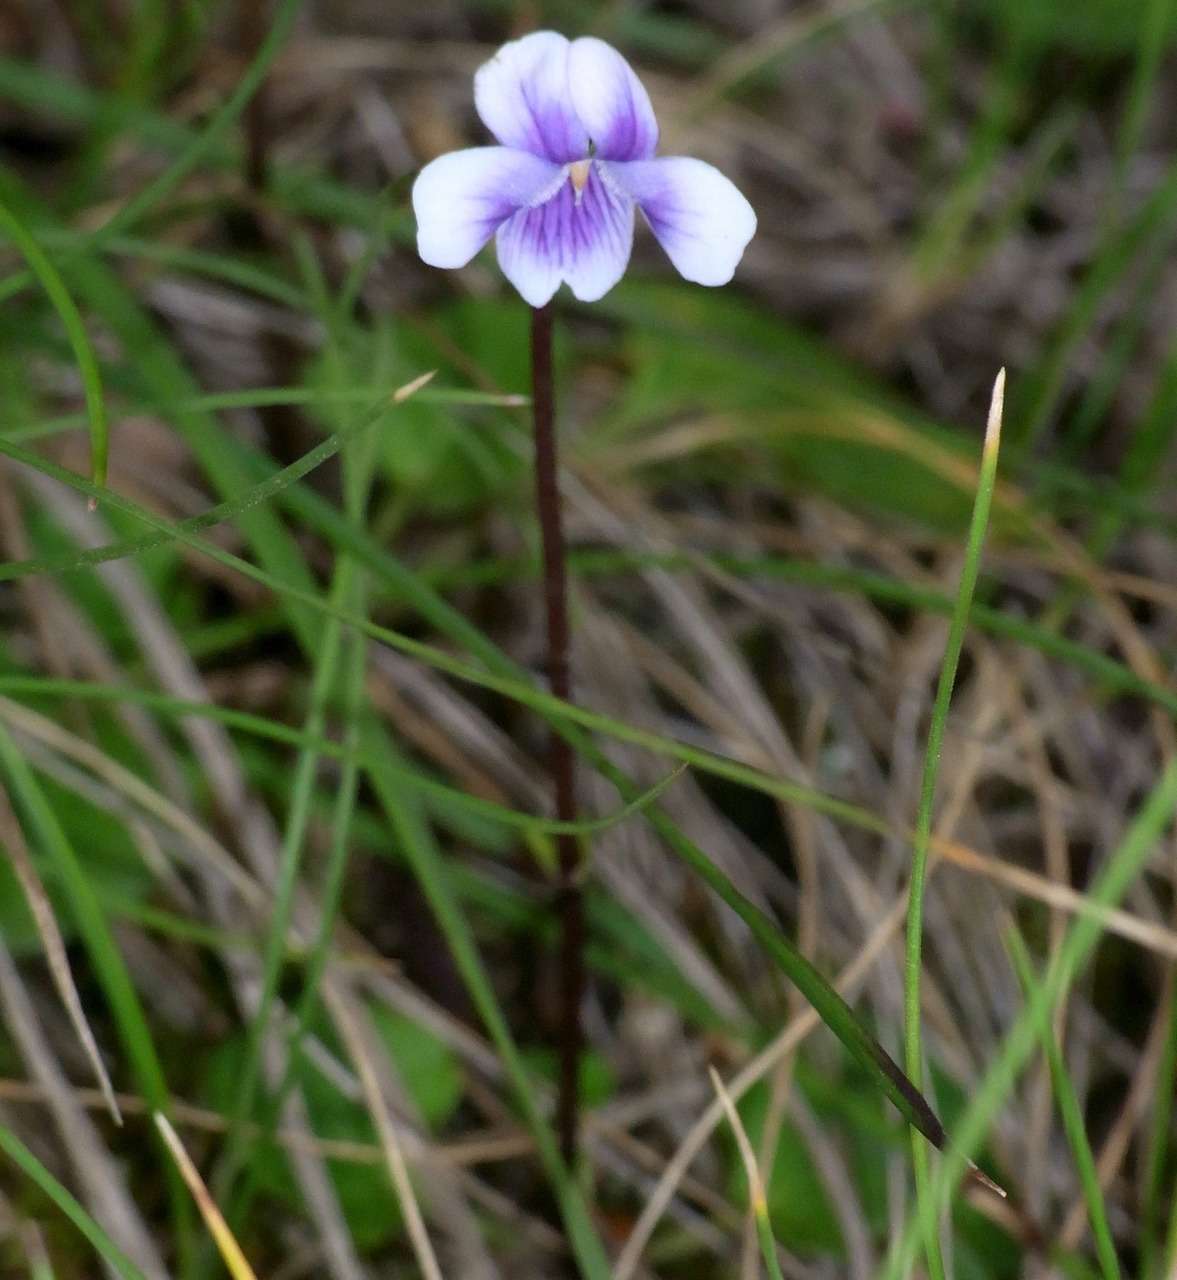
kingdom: Plantae
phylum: Tracheophyta
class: Magnoliopsida
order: Malpighiales
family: Violaceae
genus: Viola
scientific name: Viola hederacea
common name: Australian violet
